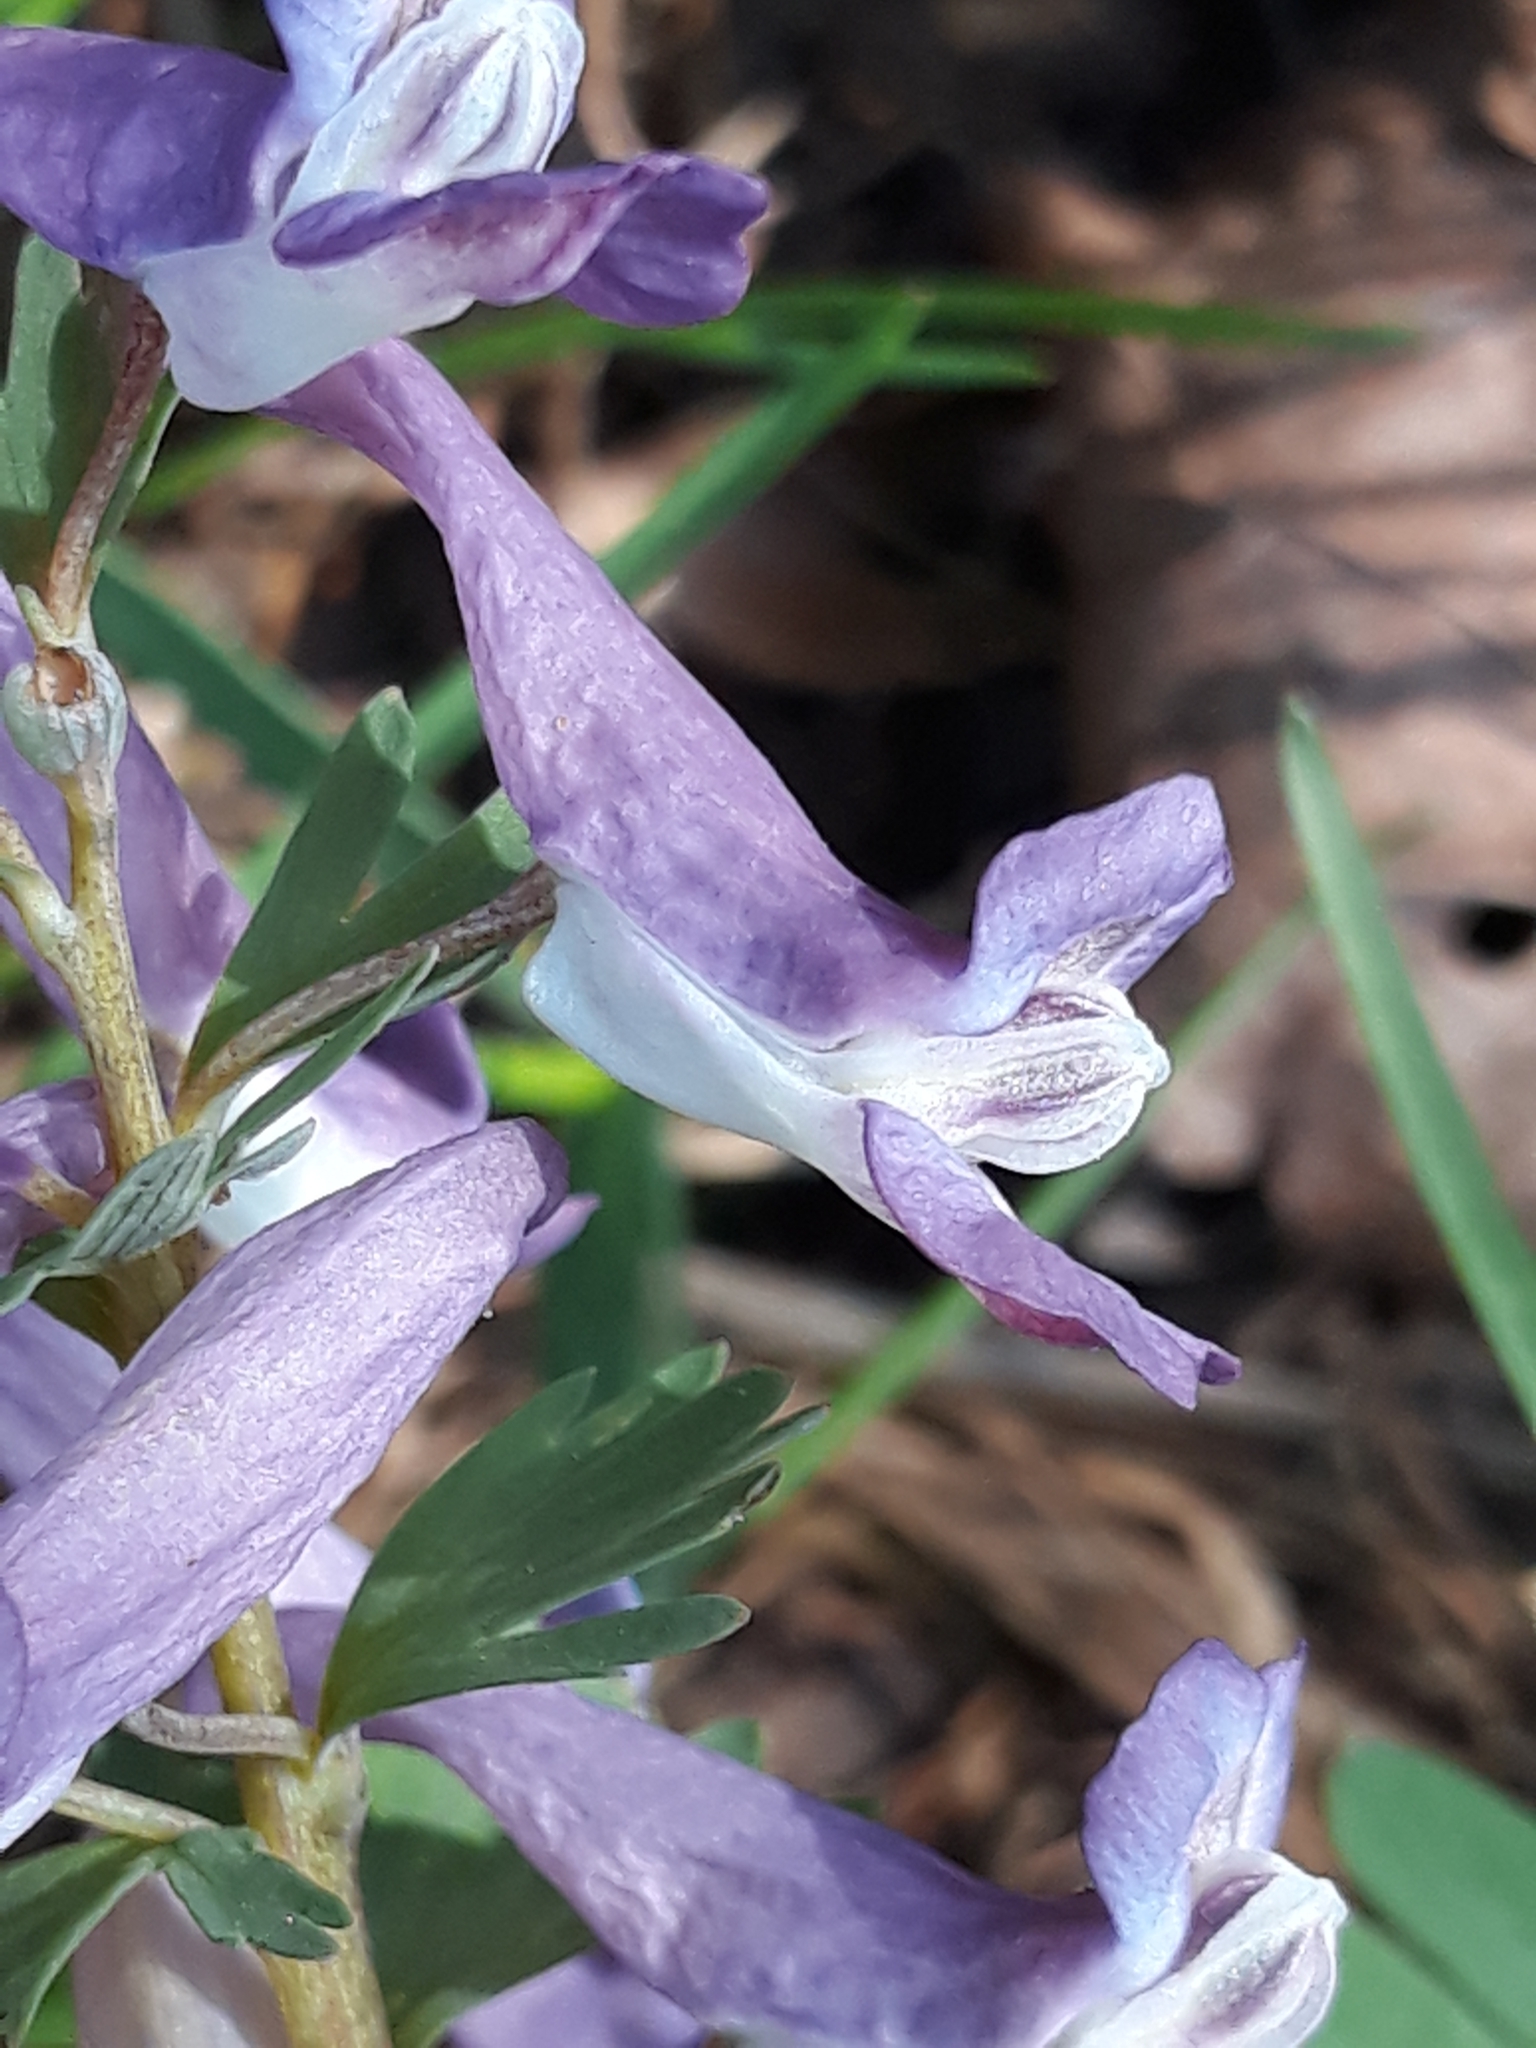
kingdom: Plantae
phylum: Tracheophyta
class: Magnoliopsida
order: Ranunculales
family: Papaveraceae
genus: Corydalis
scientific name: Corydalis solida
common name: Bird-in-a-bush
